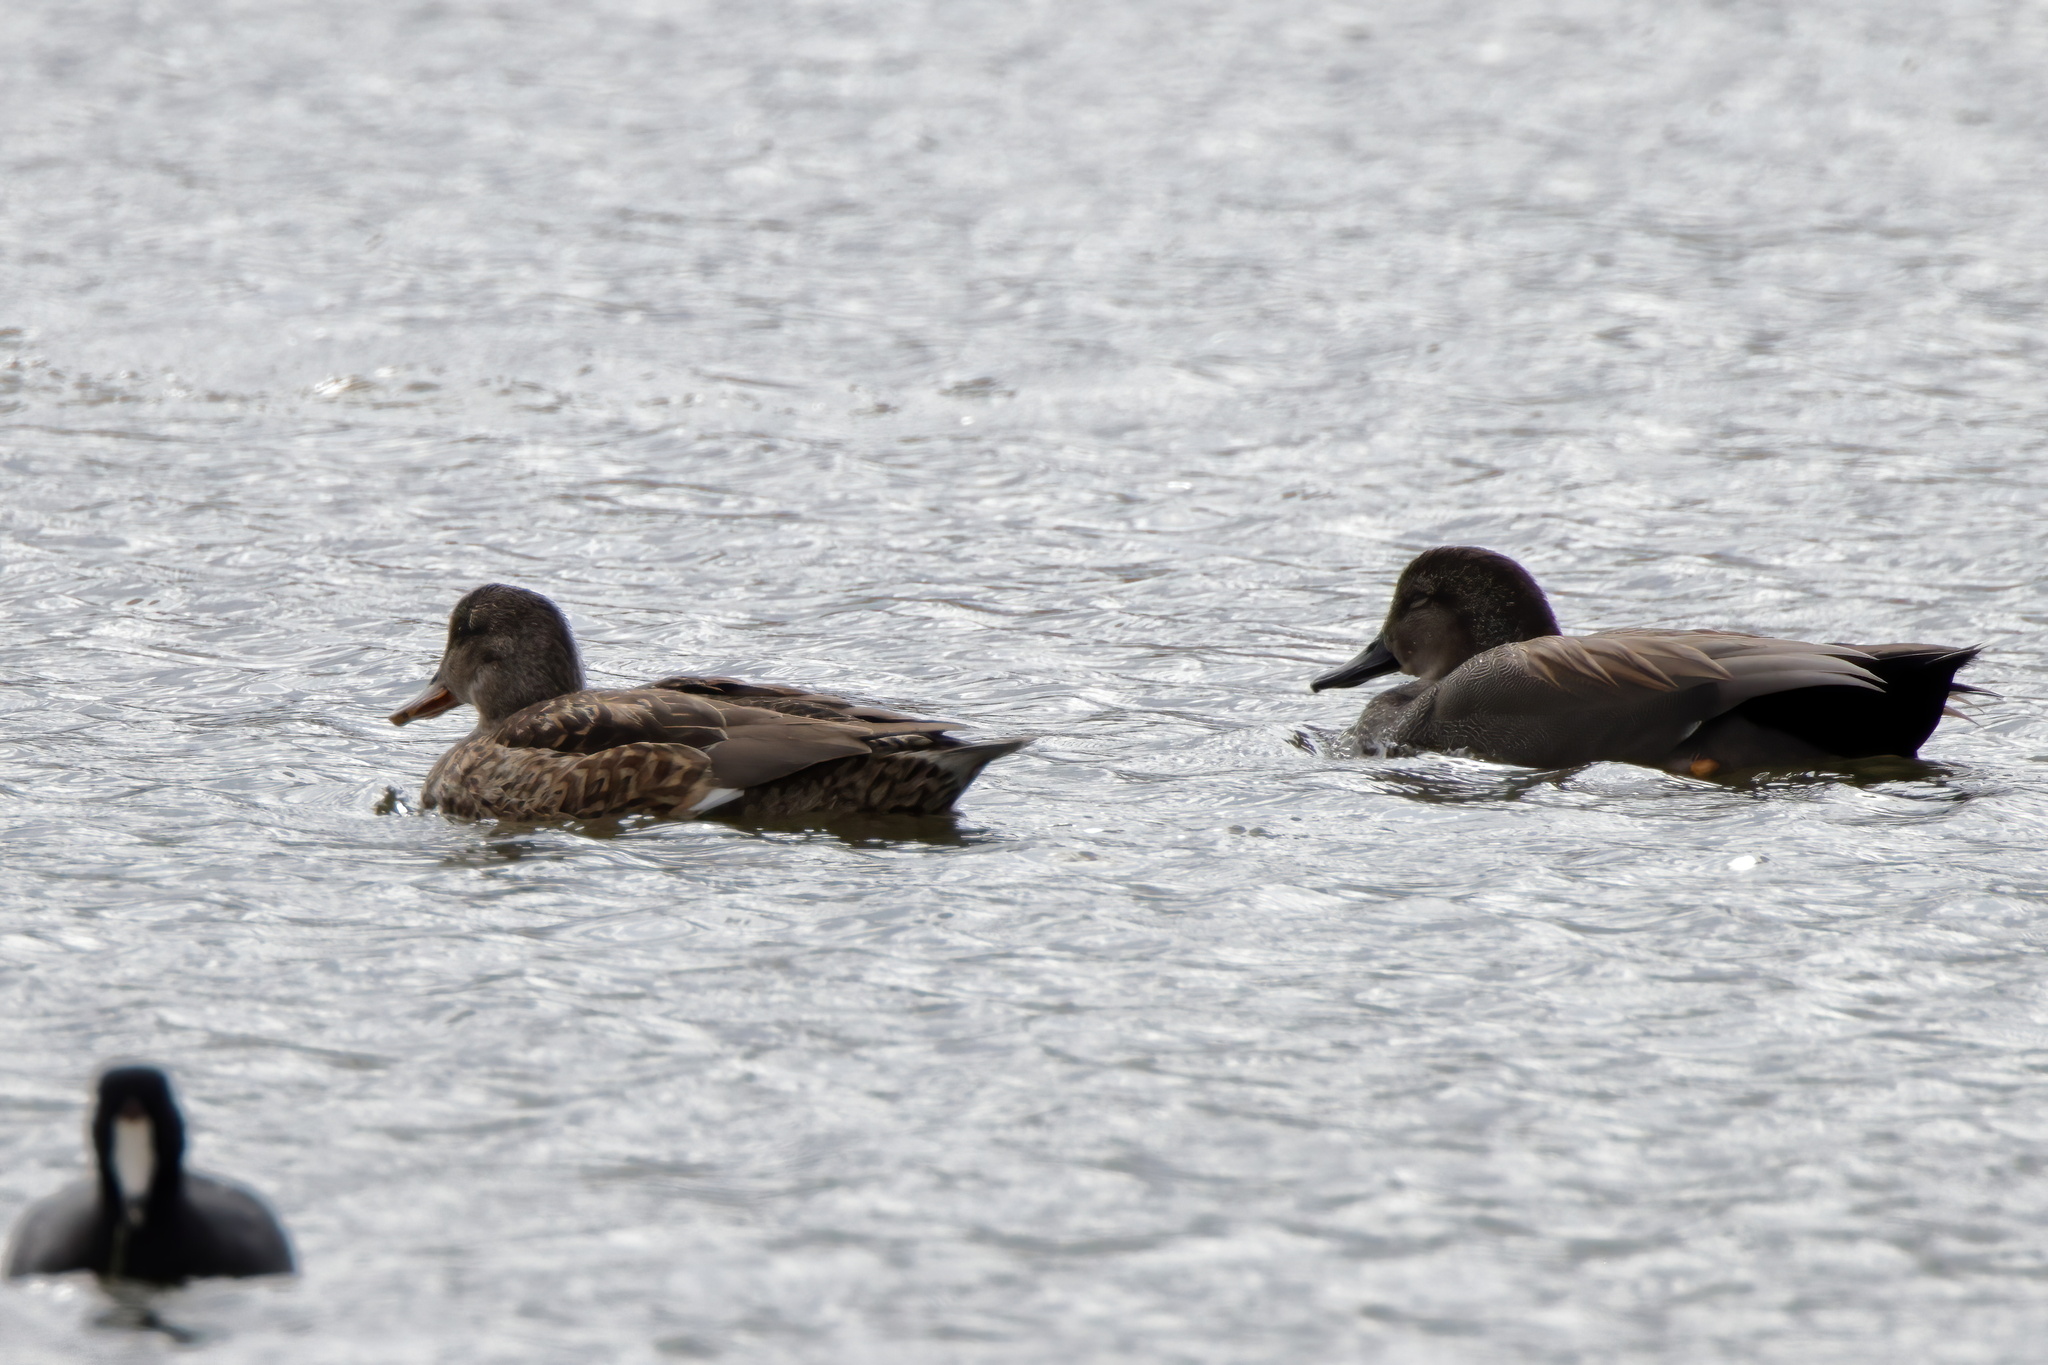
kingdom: Animalia
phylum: Chordata
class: Aves
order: Anseriformes
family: Anatidae
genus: Mareca
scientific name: Mareca strepera
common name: Gadwall
